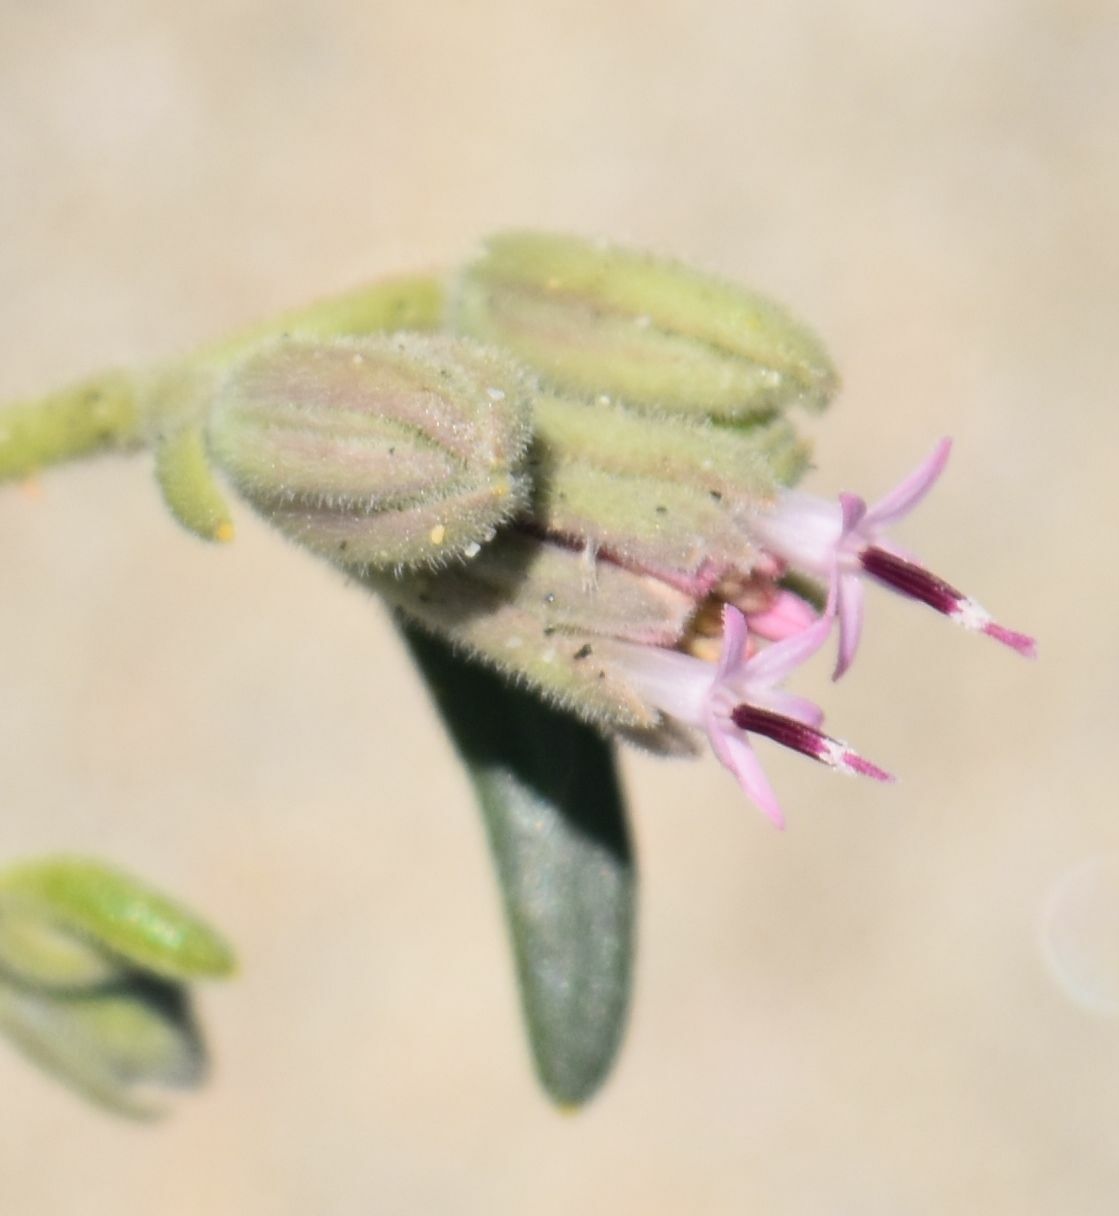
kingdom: Plantae
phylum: Tracheophyta
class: Magnoliopsida
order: Asterales
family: Asteraceae
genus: Palafoxia
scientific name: Palafoxia linearis
